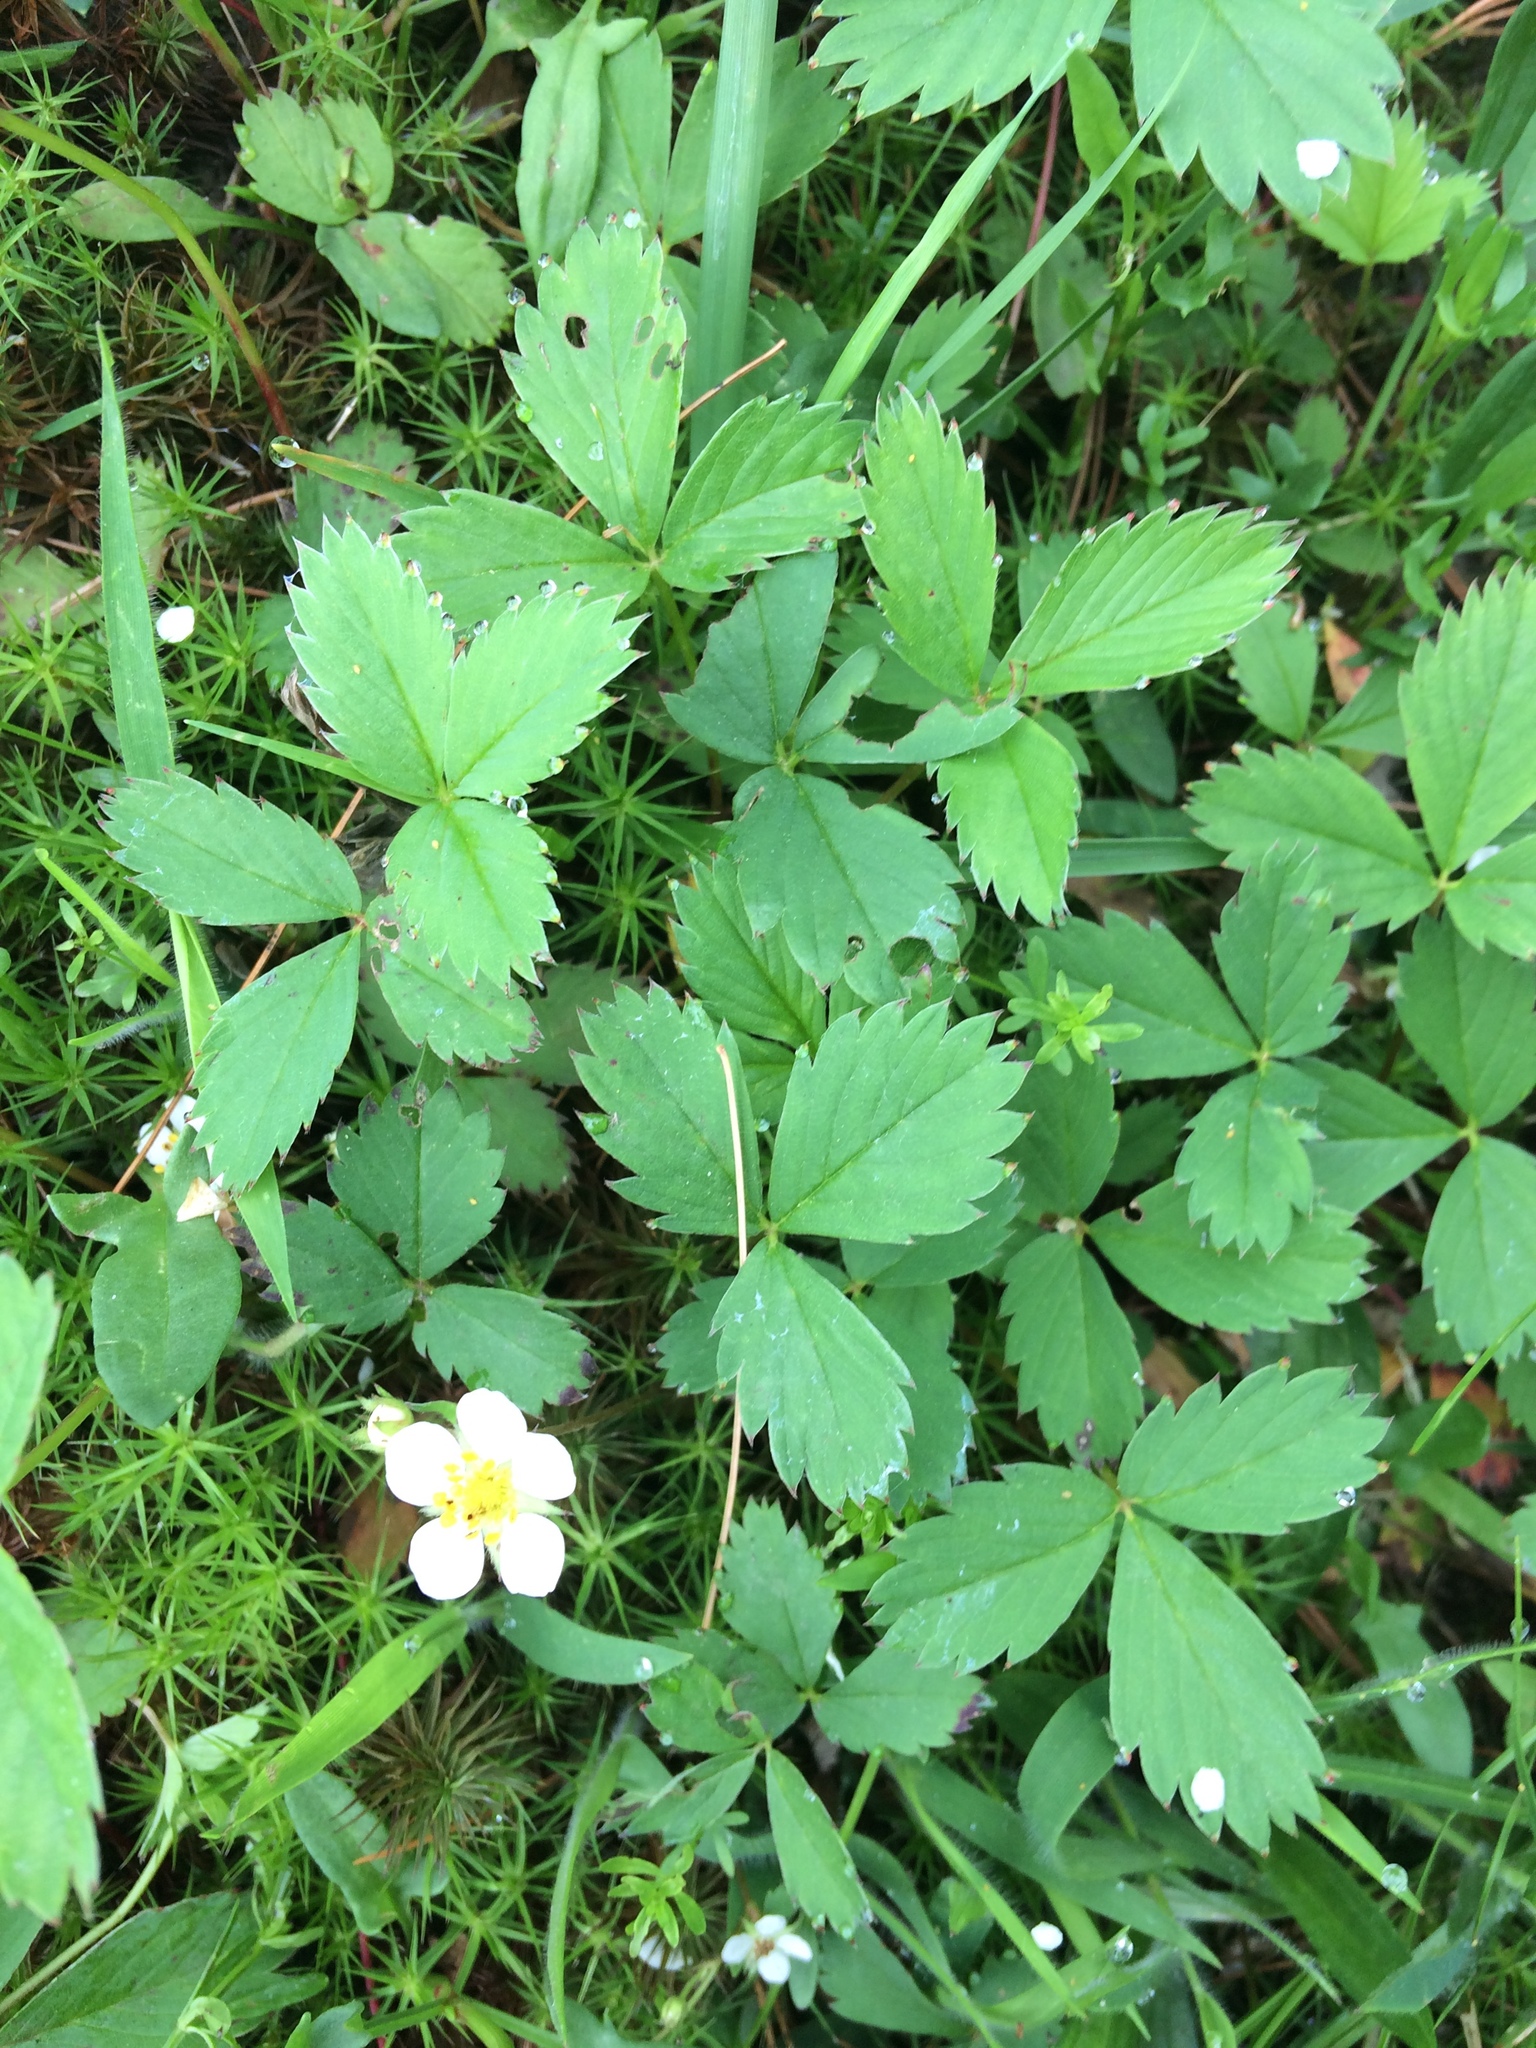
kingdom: Plantae
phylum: Tracheophyta
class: Magnoliopsida
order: Rosales
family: Rosaceae
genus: Fragaria
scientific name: Fragaria virginiana
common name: Thickleaved wild strawberry
